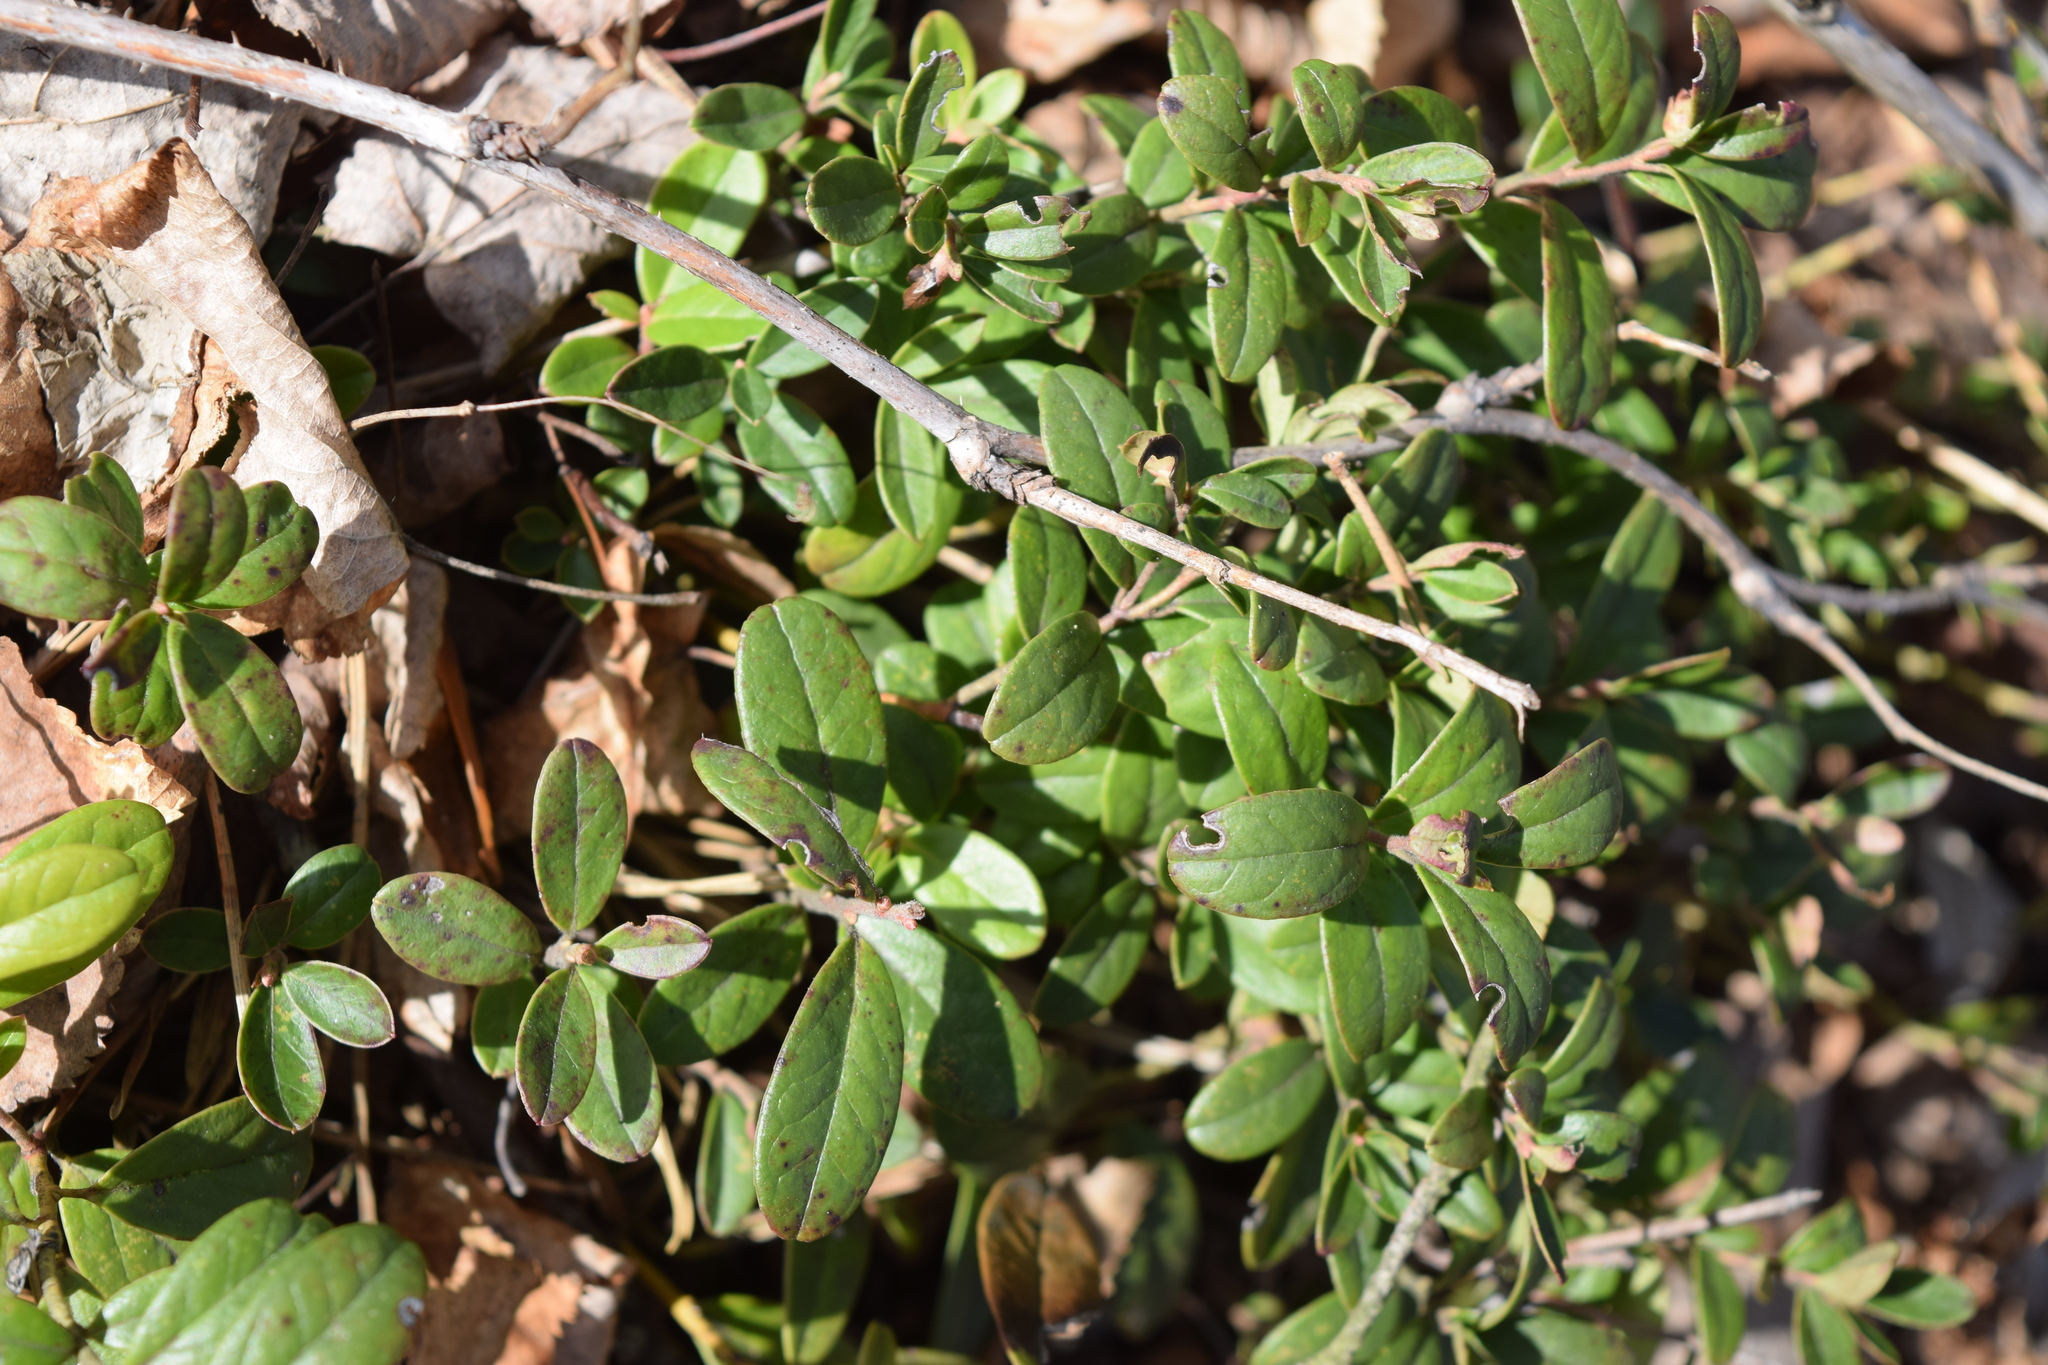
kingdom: Plantae
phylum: Tracheophyta
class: Magnoliopsida
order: Ericales
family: Ericaceae
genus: Vaccinium
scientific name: Vaccinium vitis-idaea
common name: Cowberry
